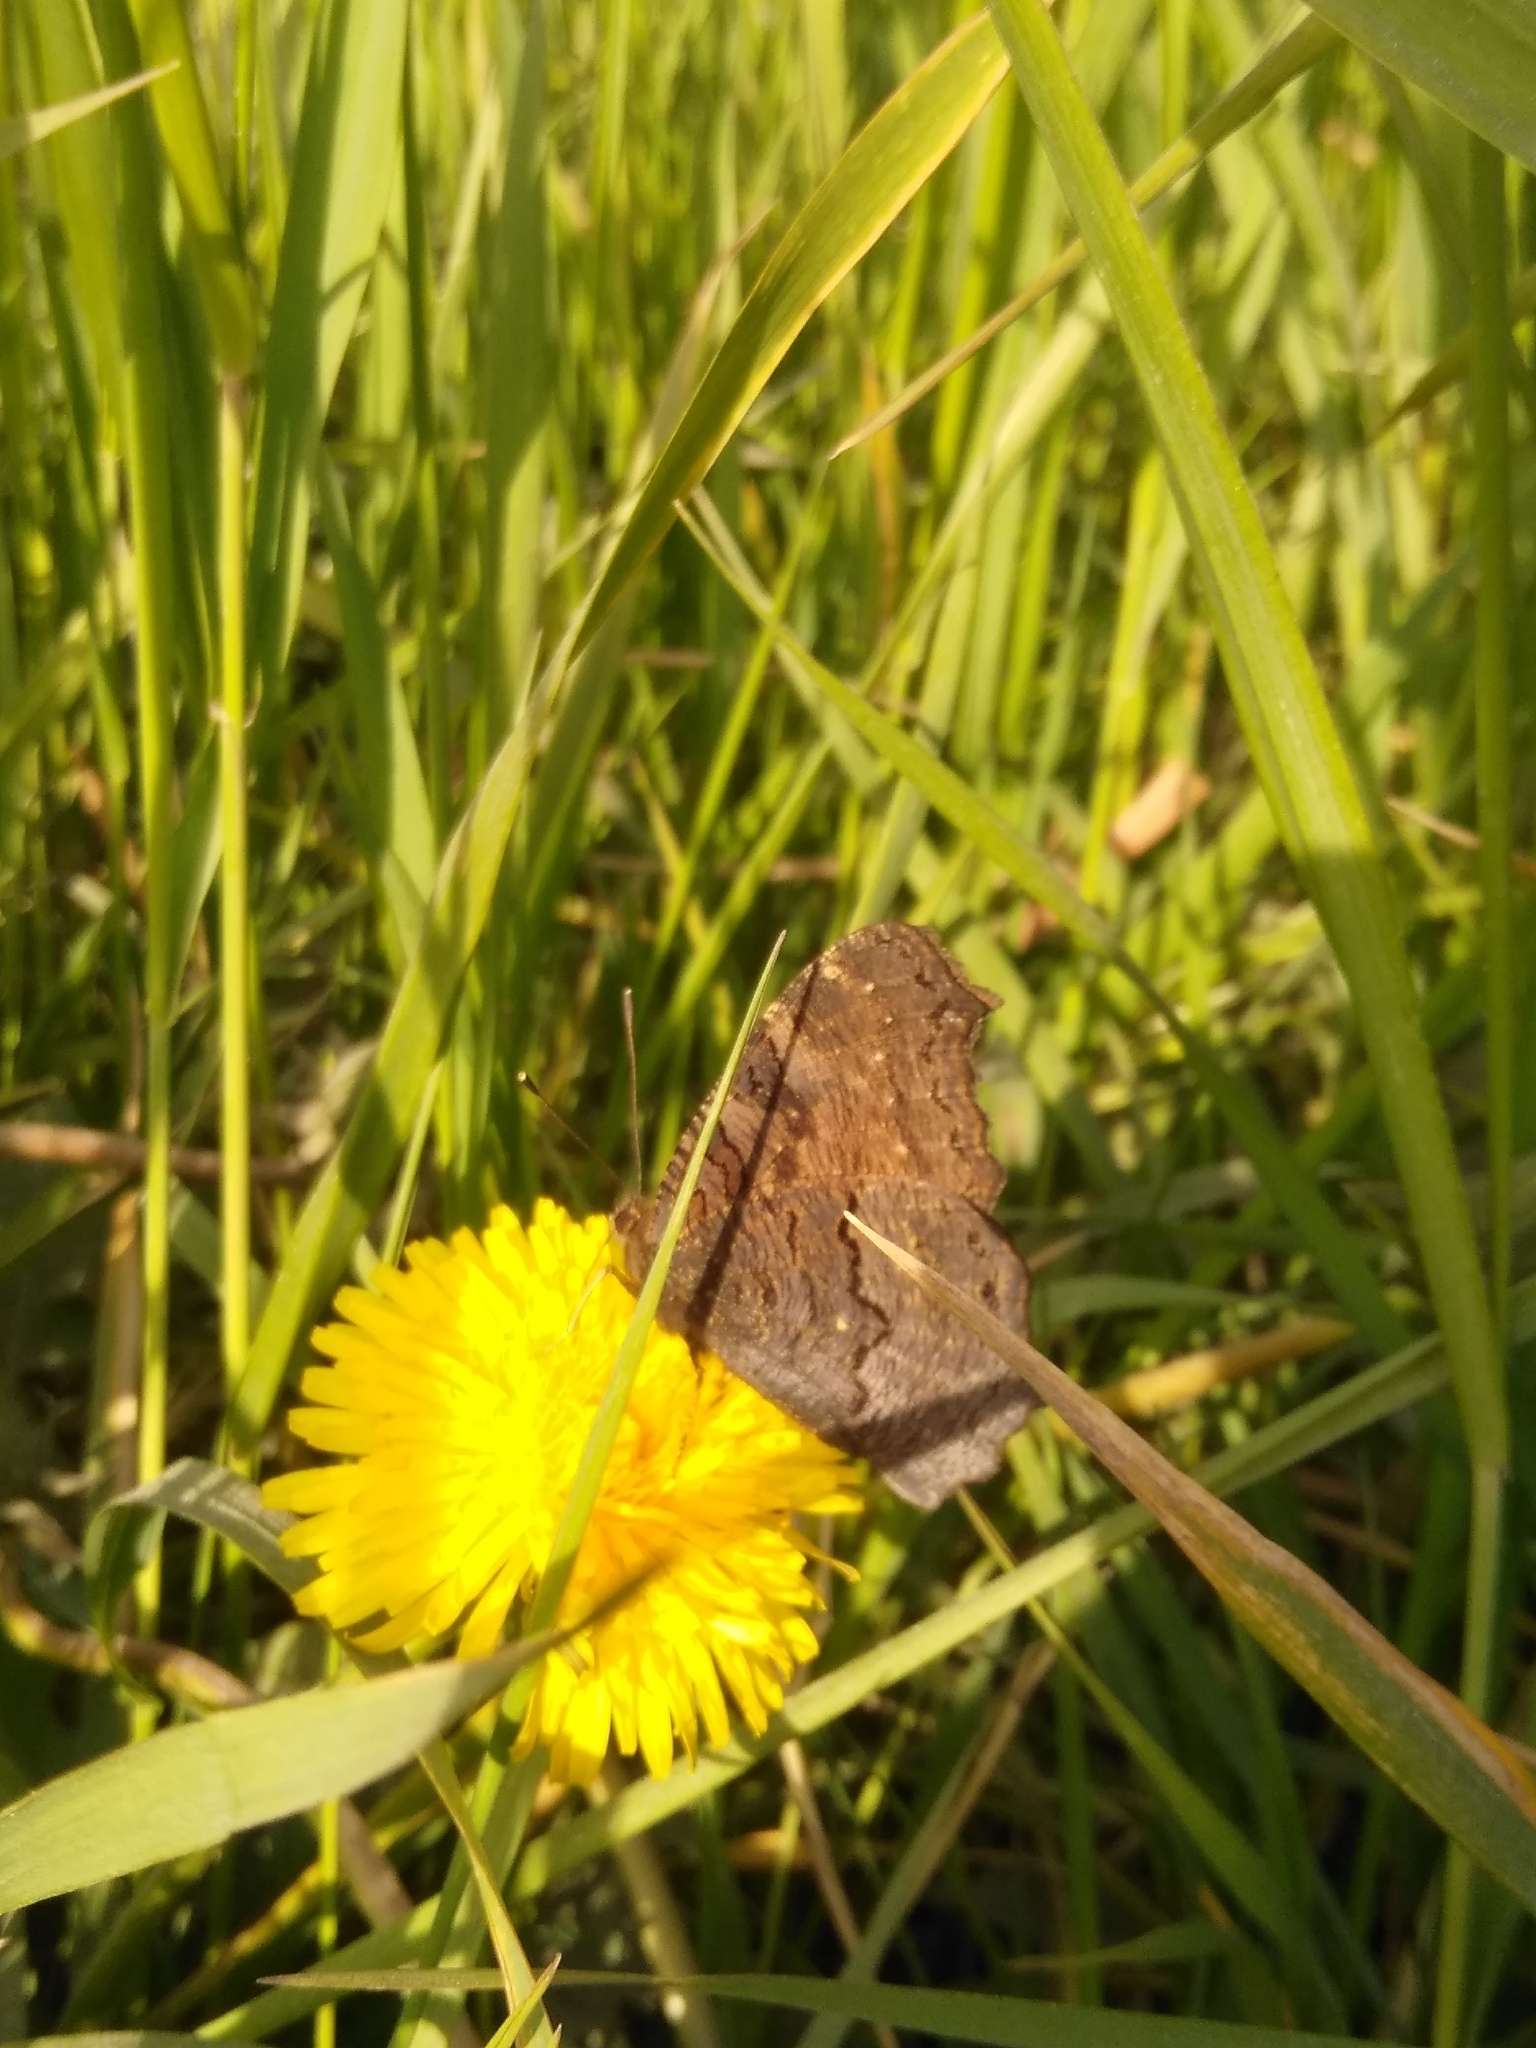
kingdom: Animalia
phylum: Arthropoda
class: Insecta
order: Lepidoptera
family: Nymphalidae
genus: Aglais
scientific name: Aglais io
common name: Peacock
